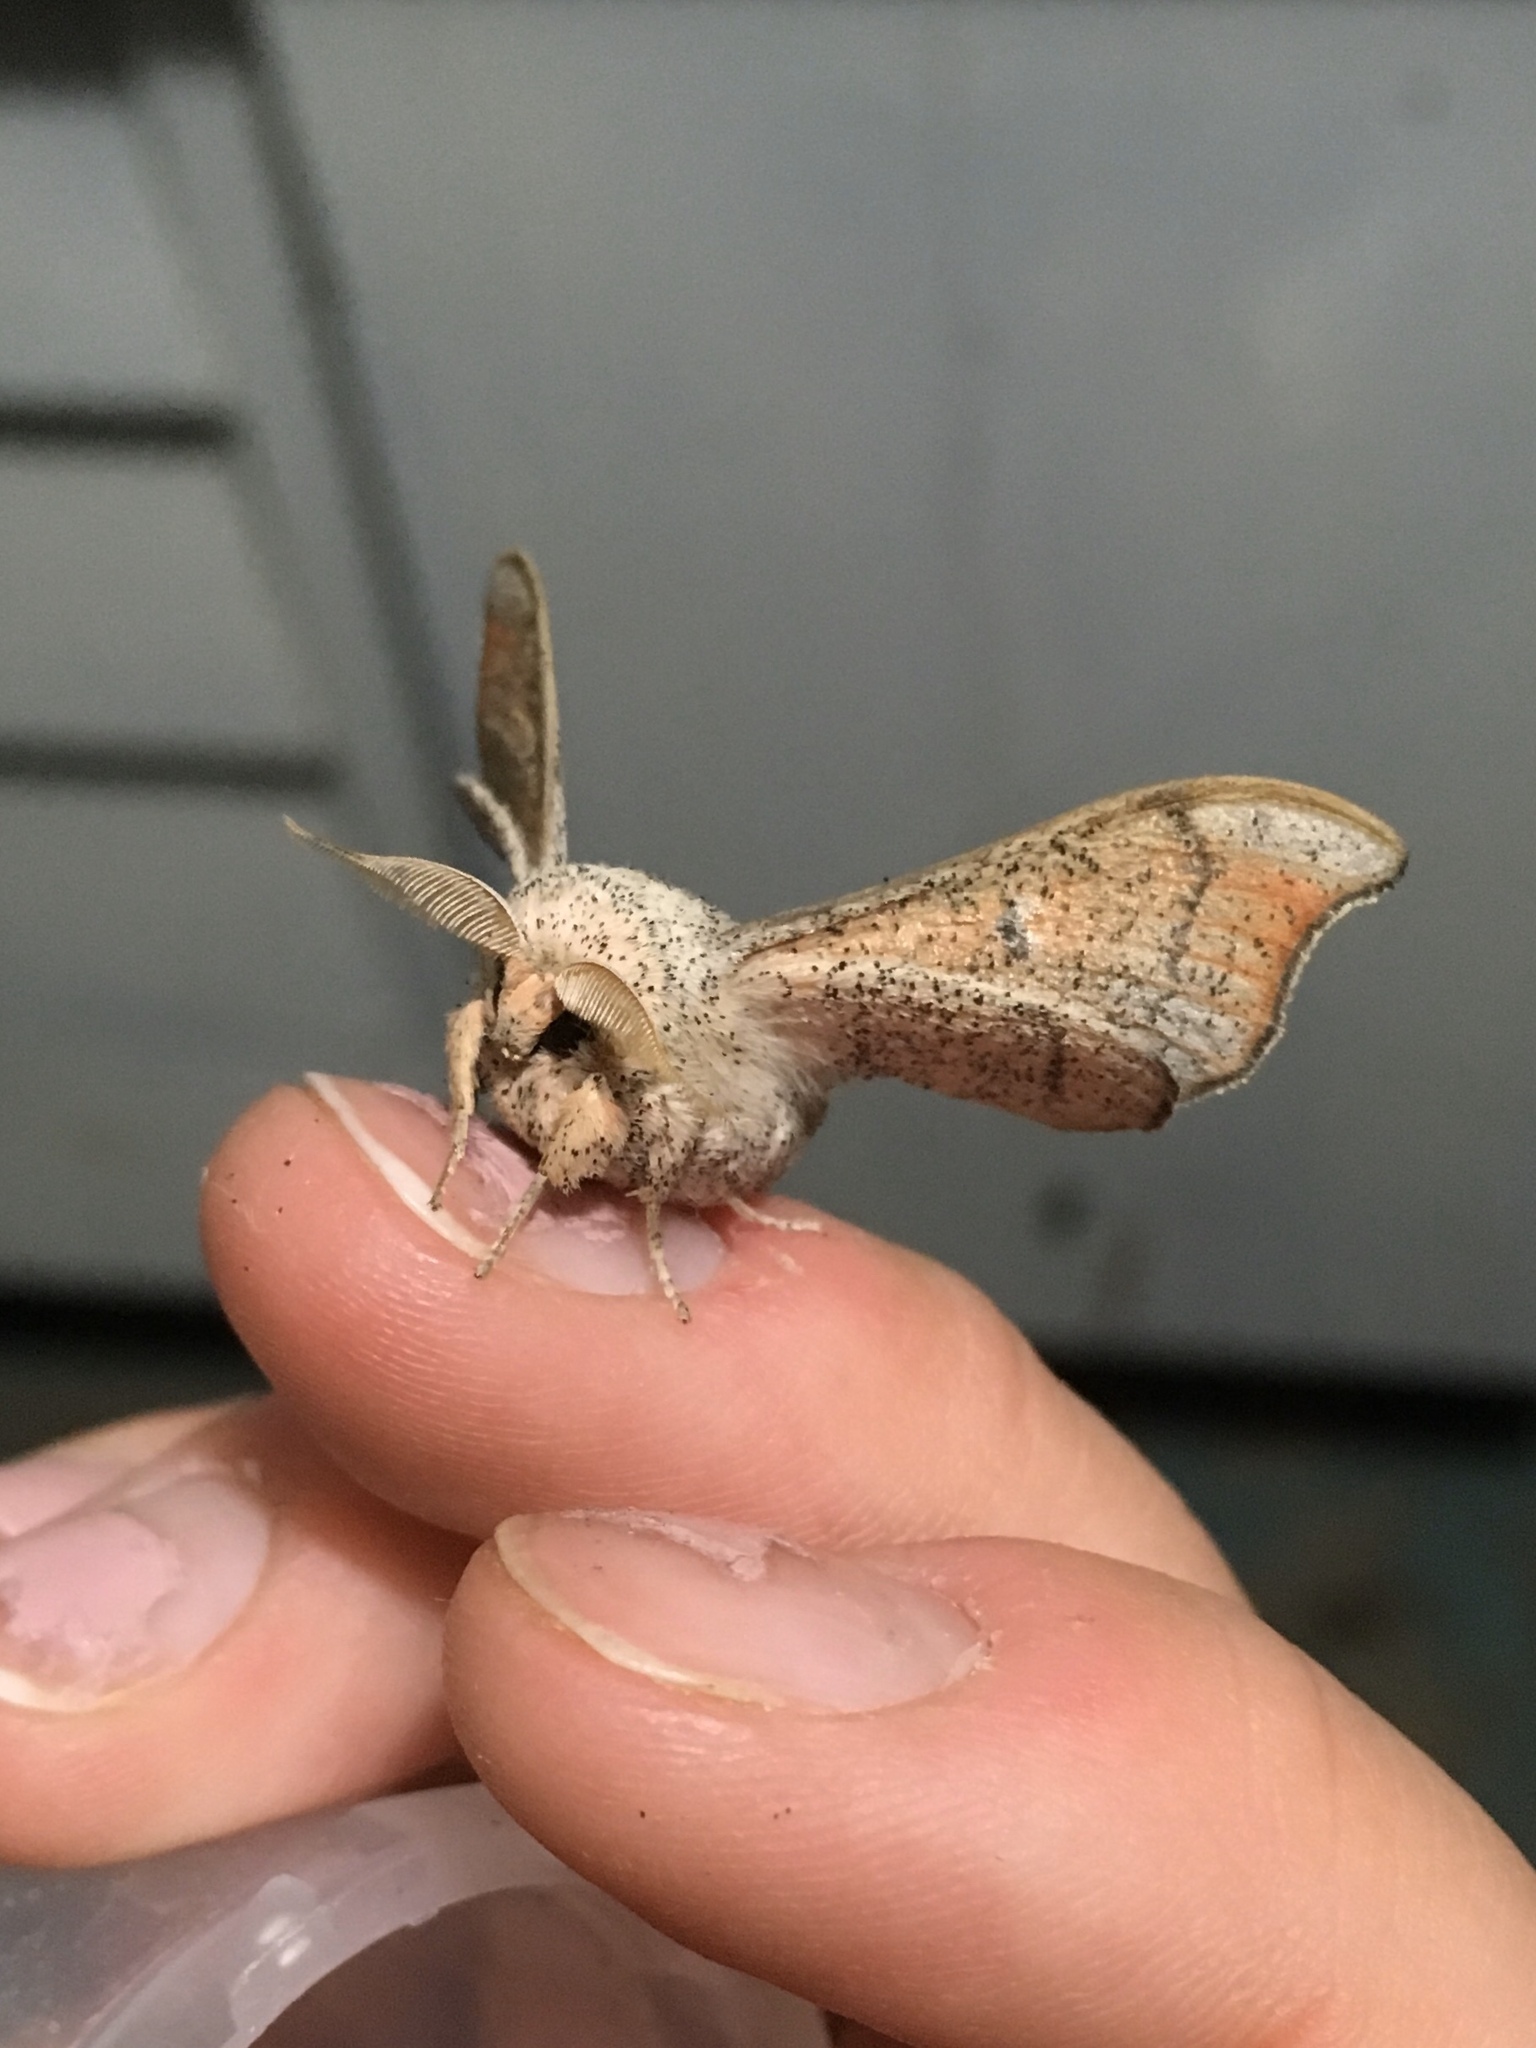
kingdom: Animalia
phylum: Arthropoda
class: Insecta
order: Lepidoptera
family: Mimallonidae
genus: Cicinnus
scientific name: Cicinnus melsheimeri
